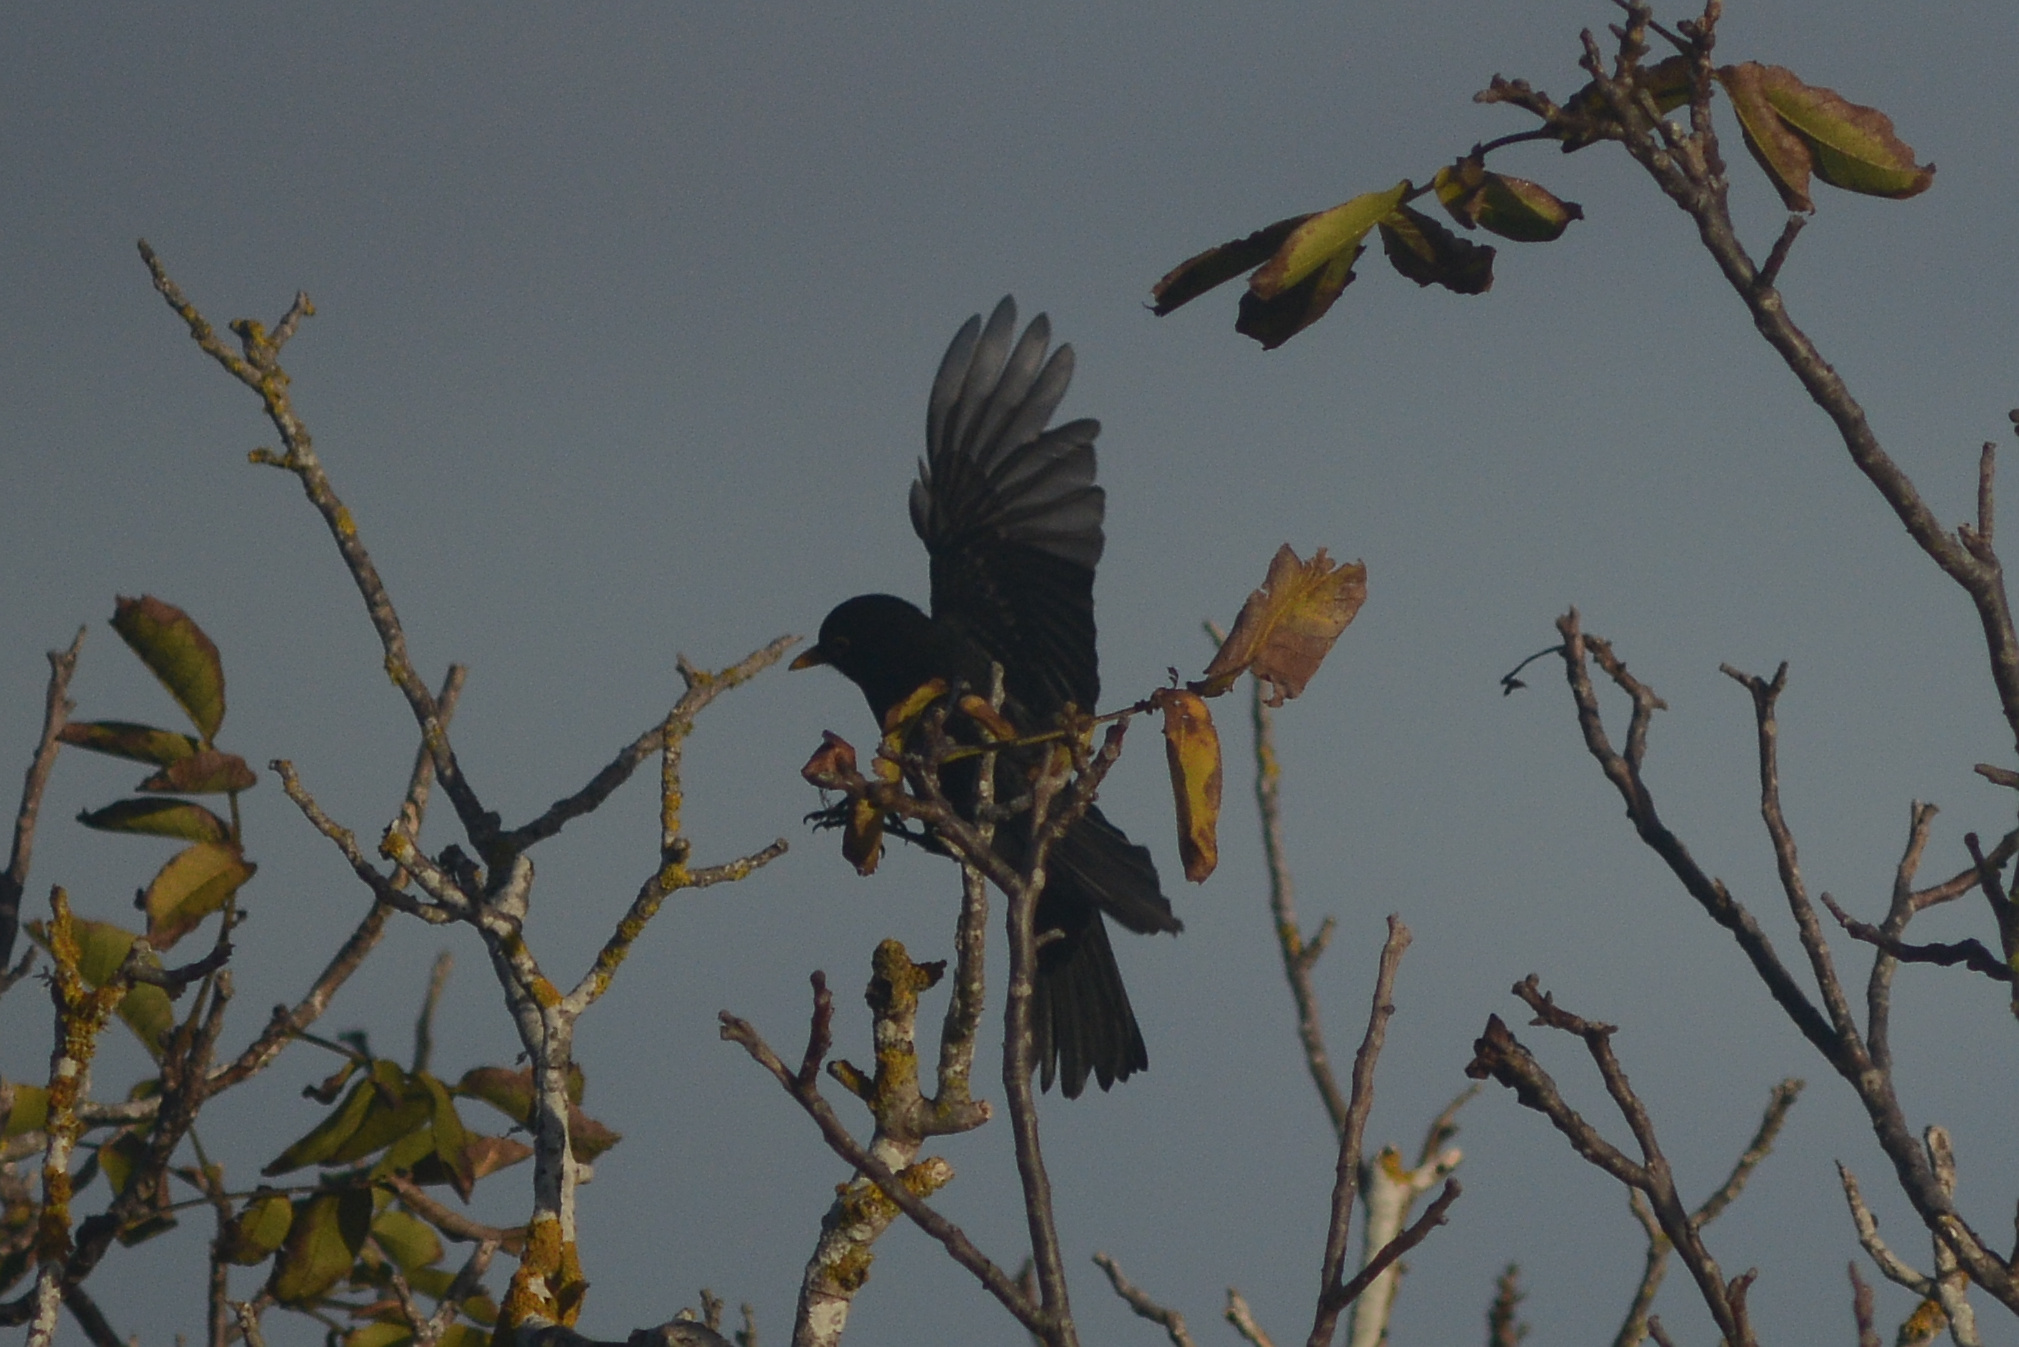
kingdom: Animalia
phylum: Chordata
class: Aves
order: Passeriformes
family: Turdidae
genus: Turdus
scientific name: Turdus merula
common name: Common blackbird
